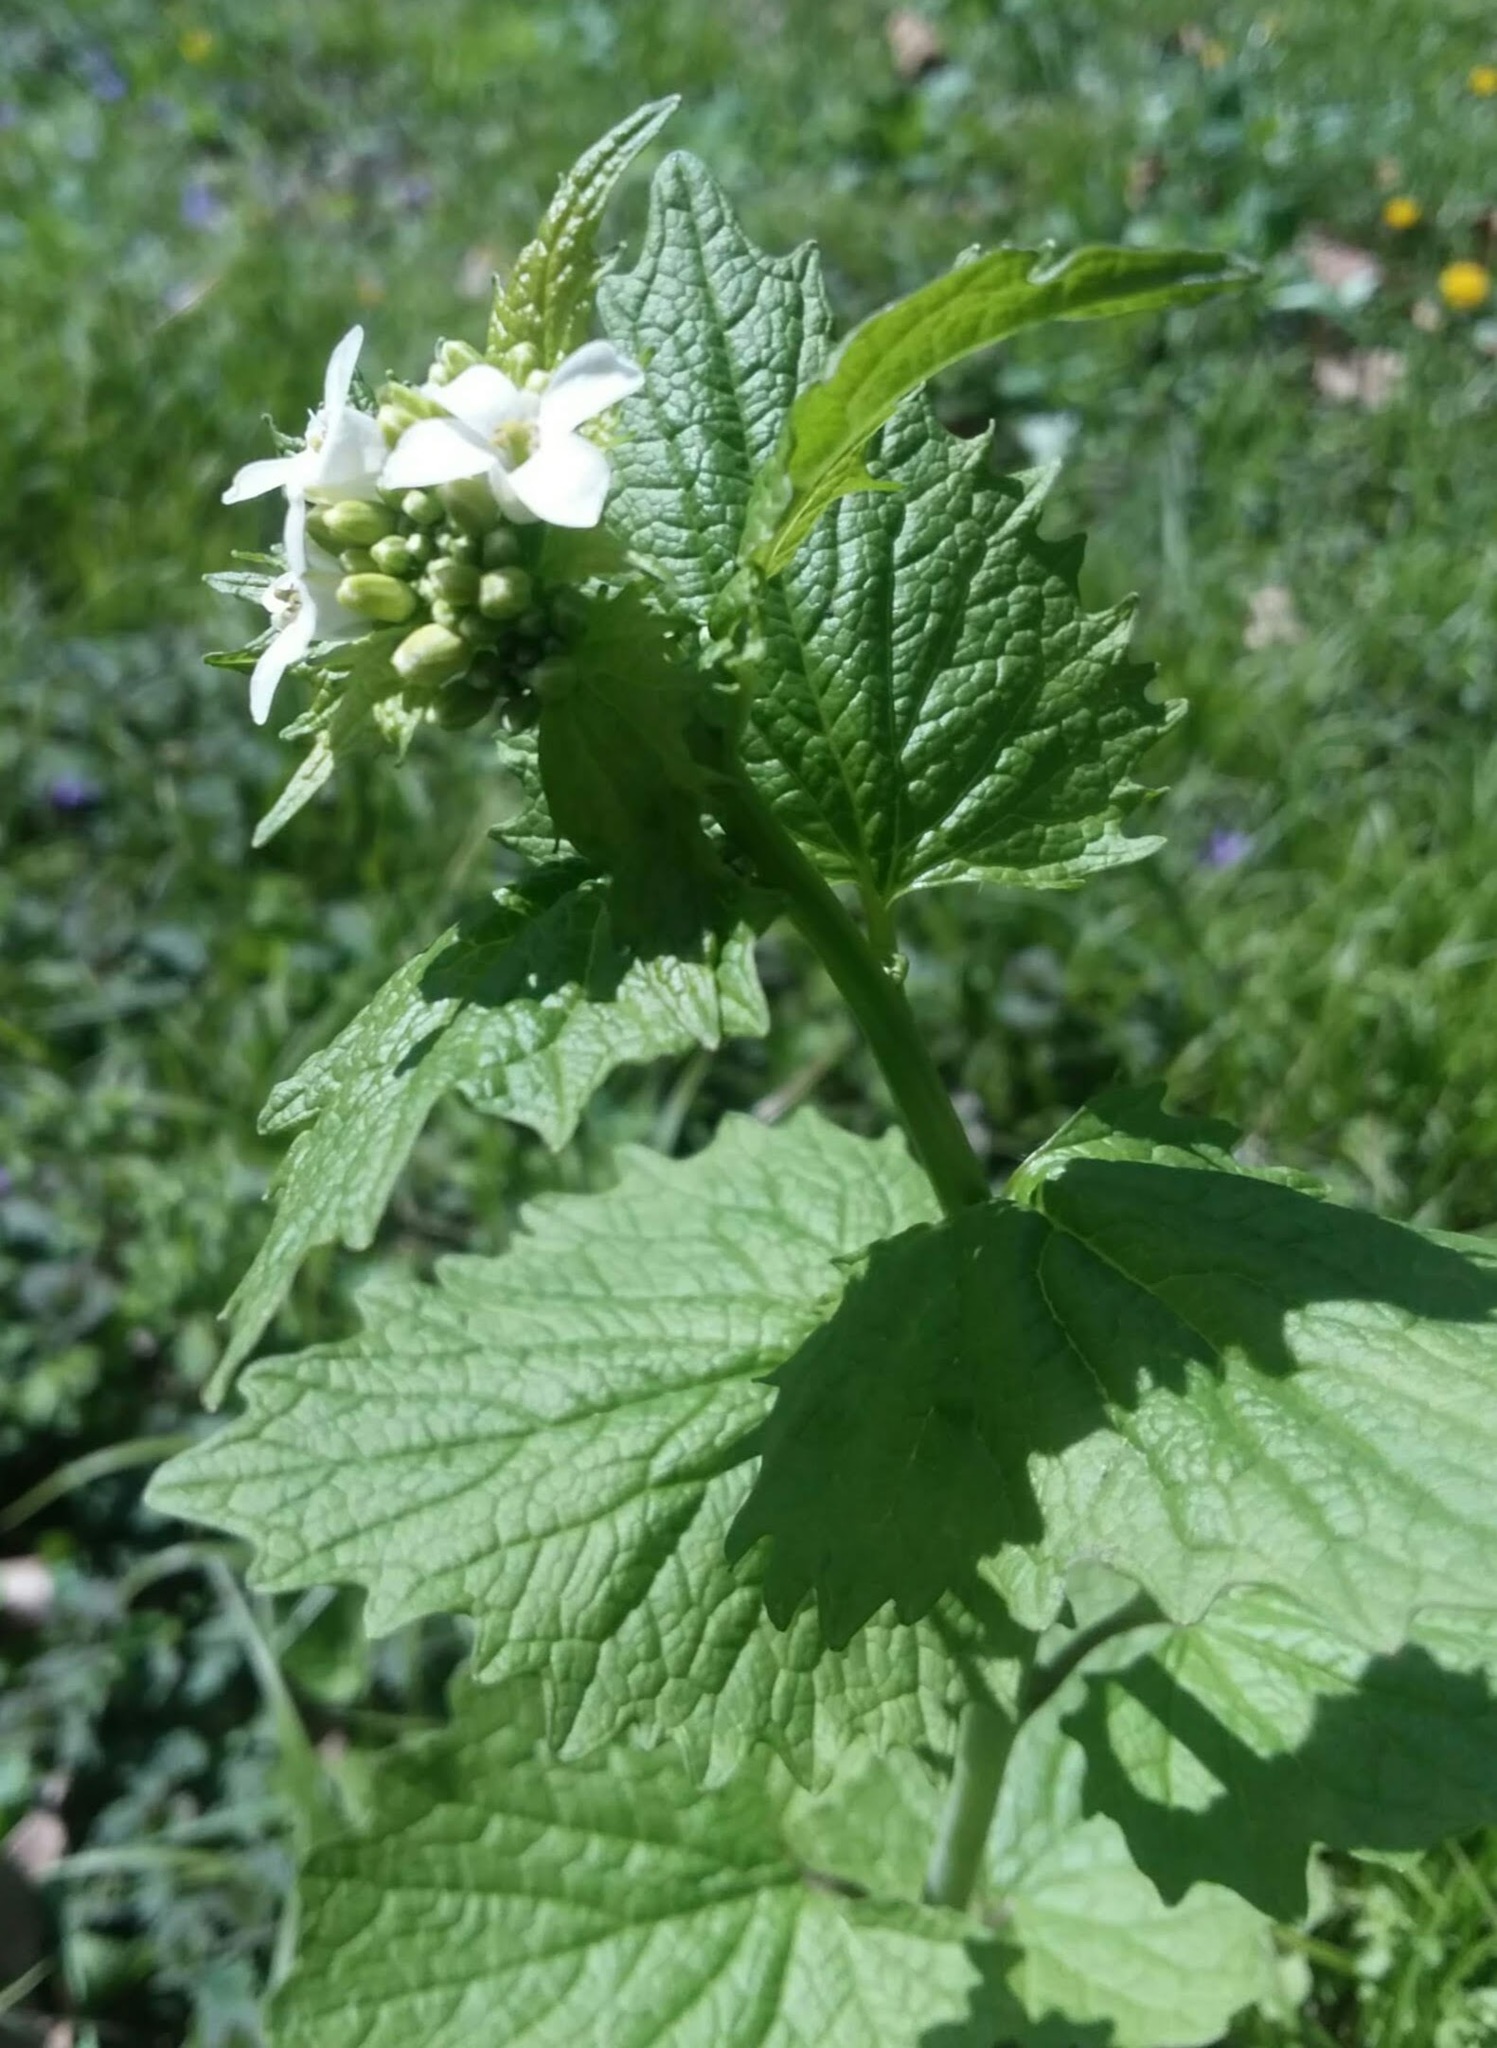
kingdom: Plantae
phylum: Tracheophyta
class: Magnoliopsida
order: Brassicales
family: Brassicaceae
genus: Alliaria
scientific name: Alliaria petiolata
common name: Garlic mustard
